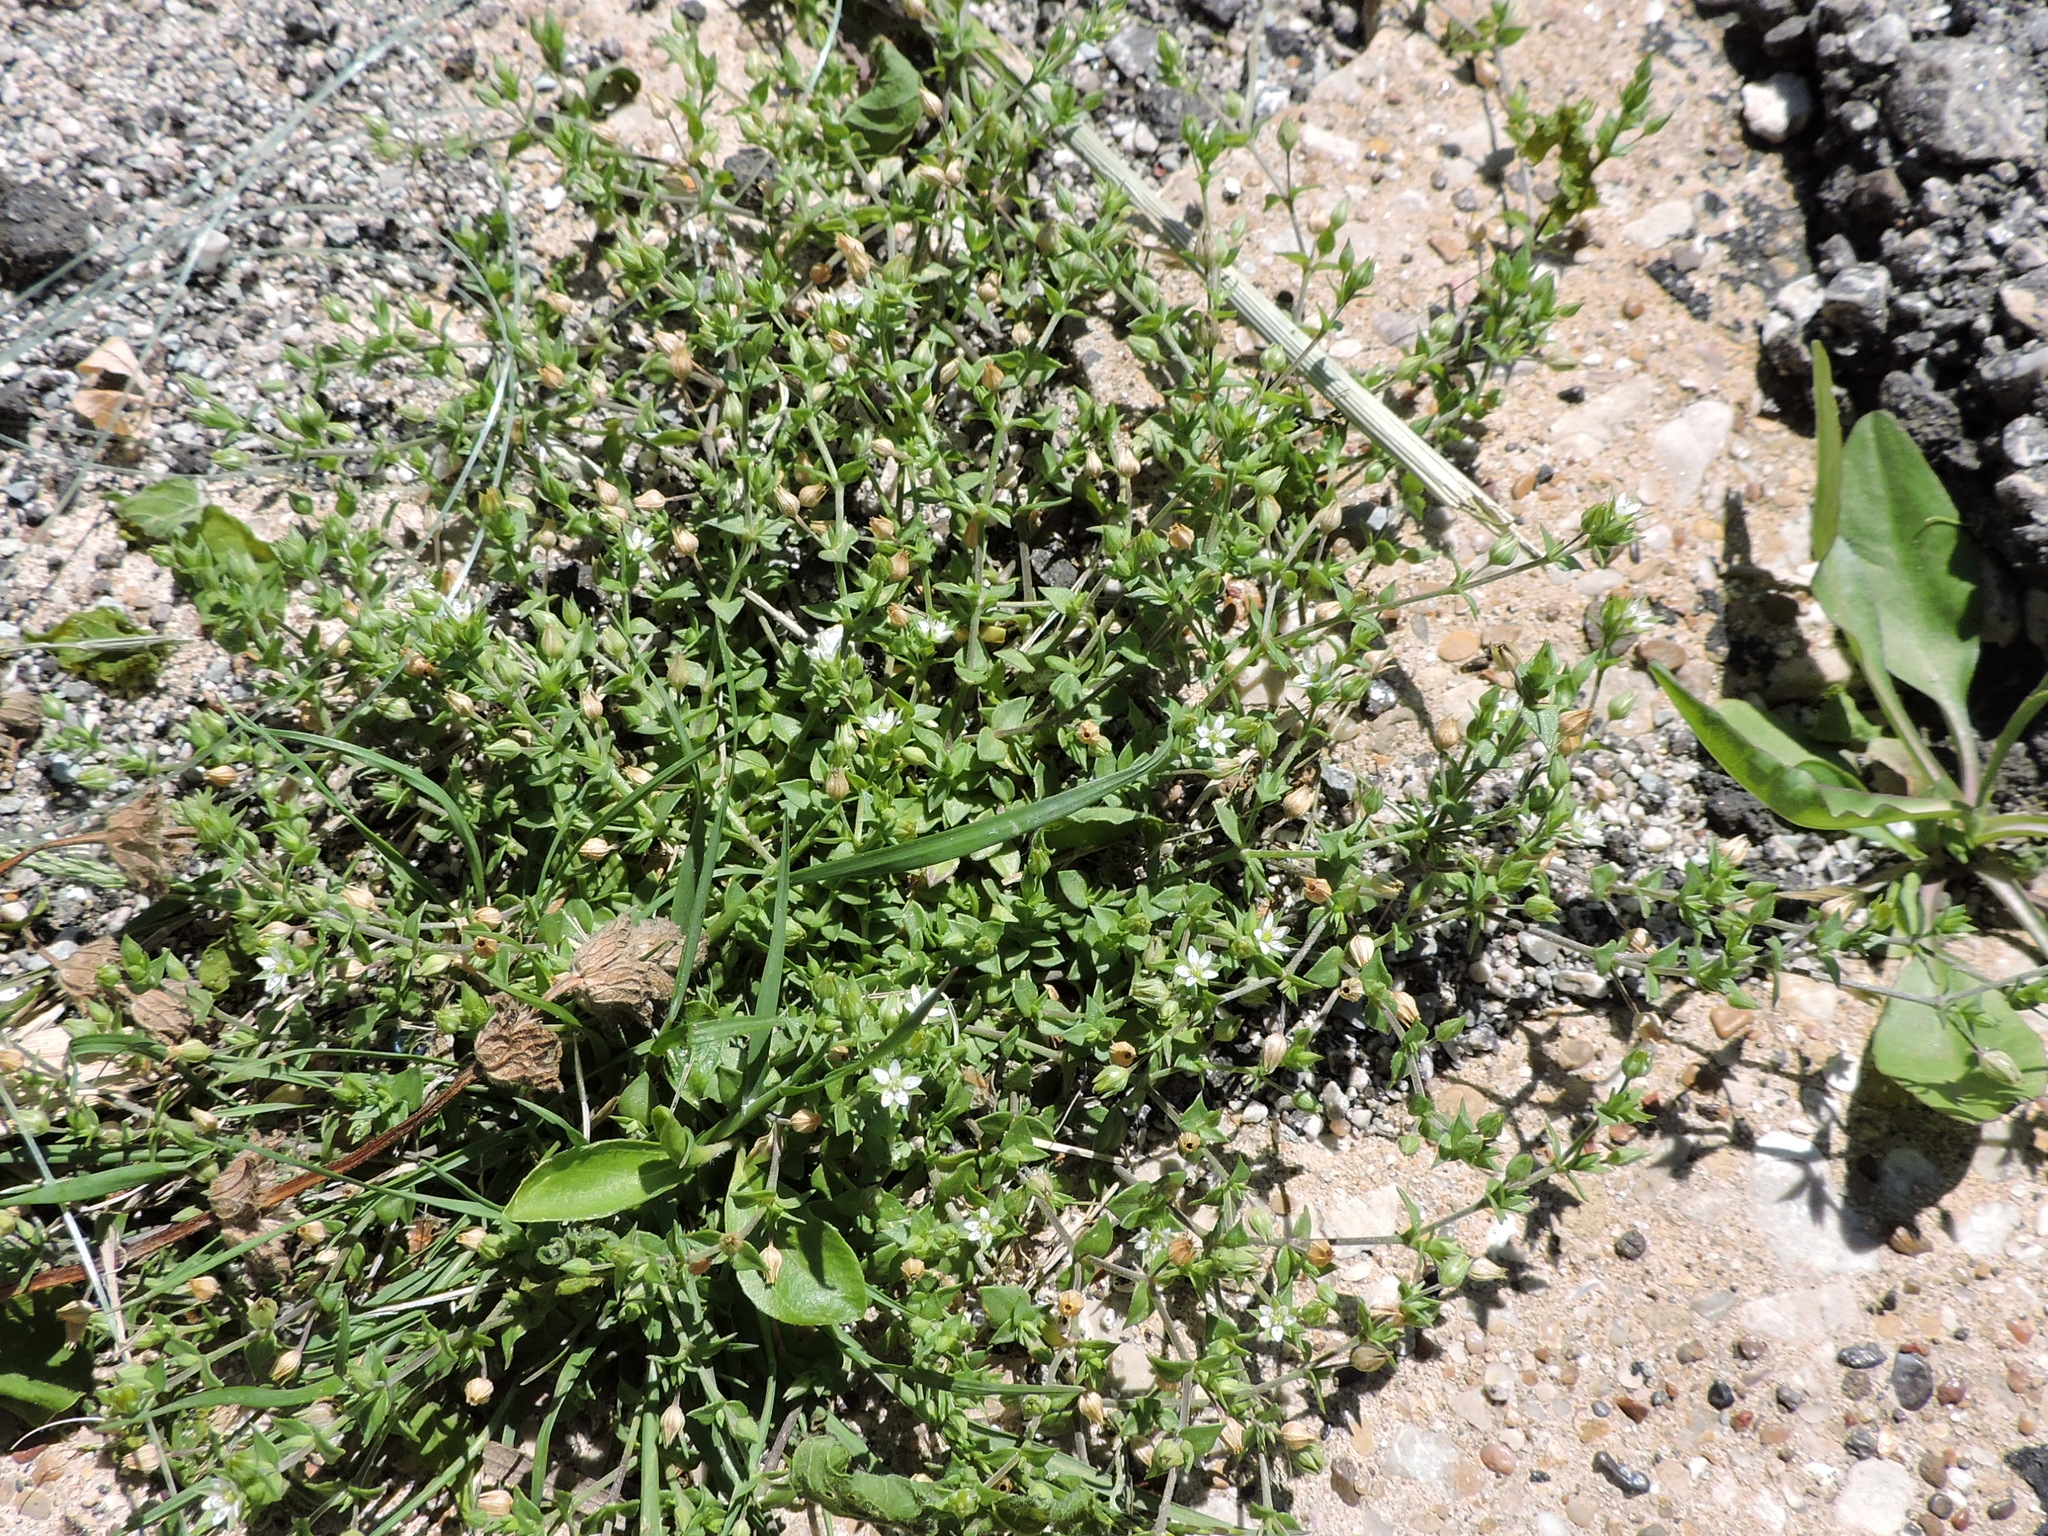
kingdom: Plantae
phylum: Tracheophyta
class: Magnoliopsida
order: Caryophyllales
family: Caryophyllaceae
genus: Arenaria
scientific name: Arenaria serpyllifolia
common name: Thyme-leaved sandwort
